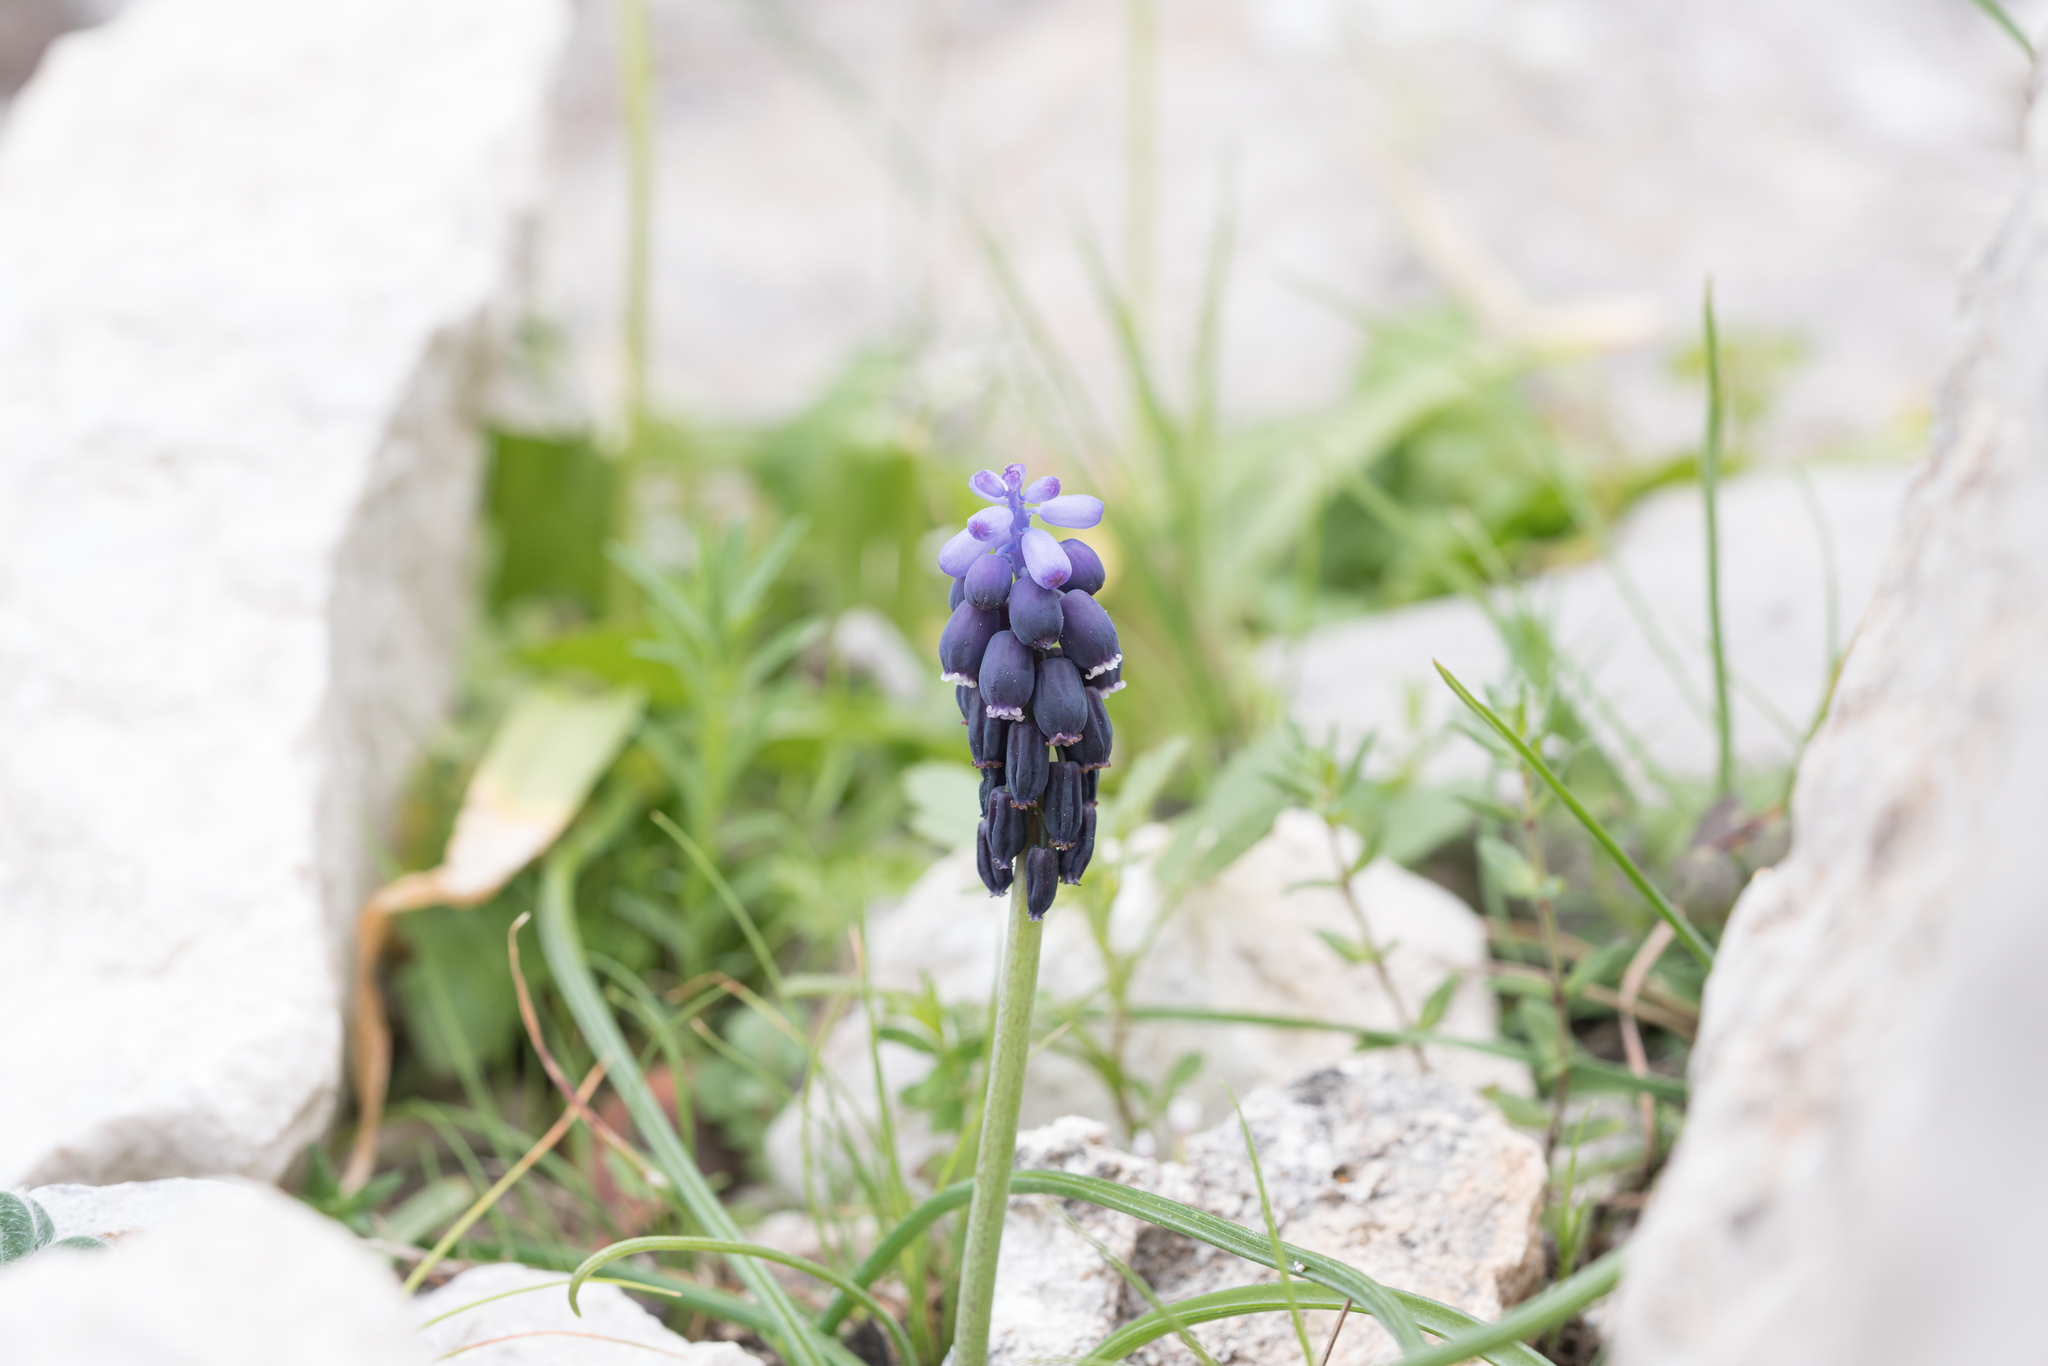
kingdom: Plantae
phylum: Tracheophyta
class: Liliopsida
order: Asparagales
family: Asparagaceae
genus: Muscari
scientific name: Muscari neglectum
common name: Grape-hyacinth
